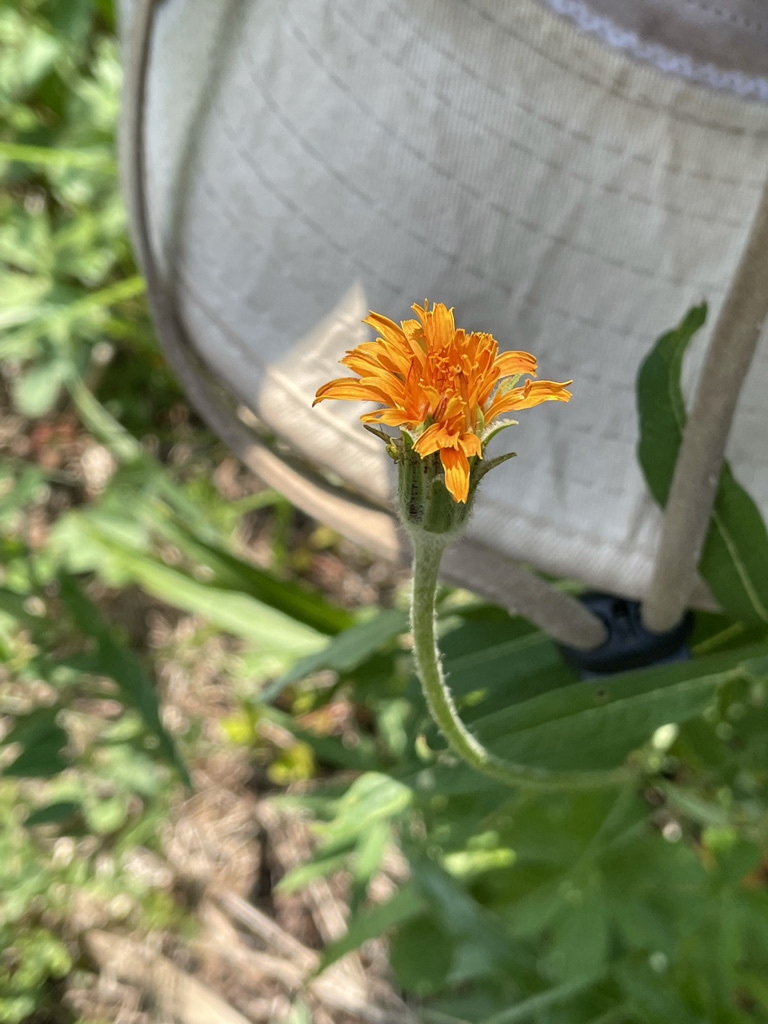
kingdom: Plantae
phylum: Tracheophyta
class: Magnoliopsida
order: Asterales
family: Asteraceae
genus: Agoseris
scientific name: Agoseris aurantiaca
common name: Mountain agoseris
